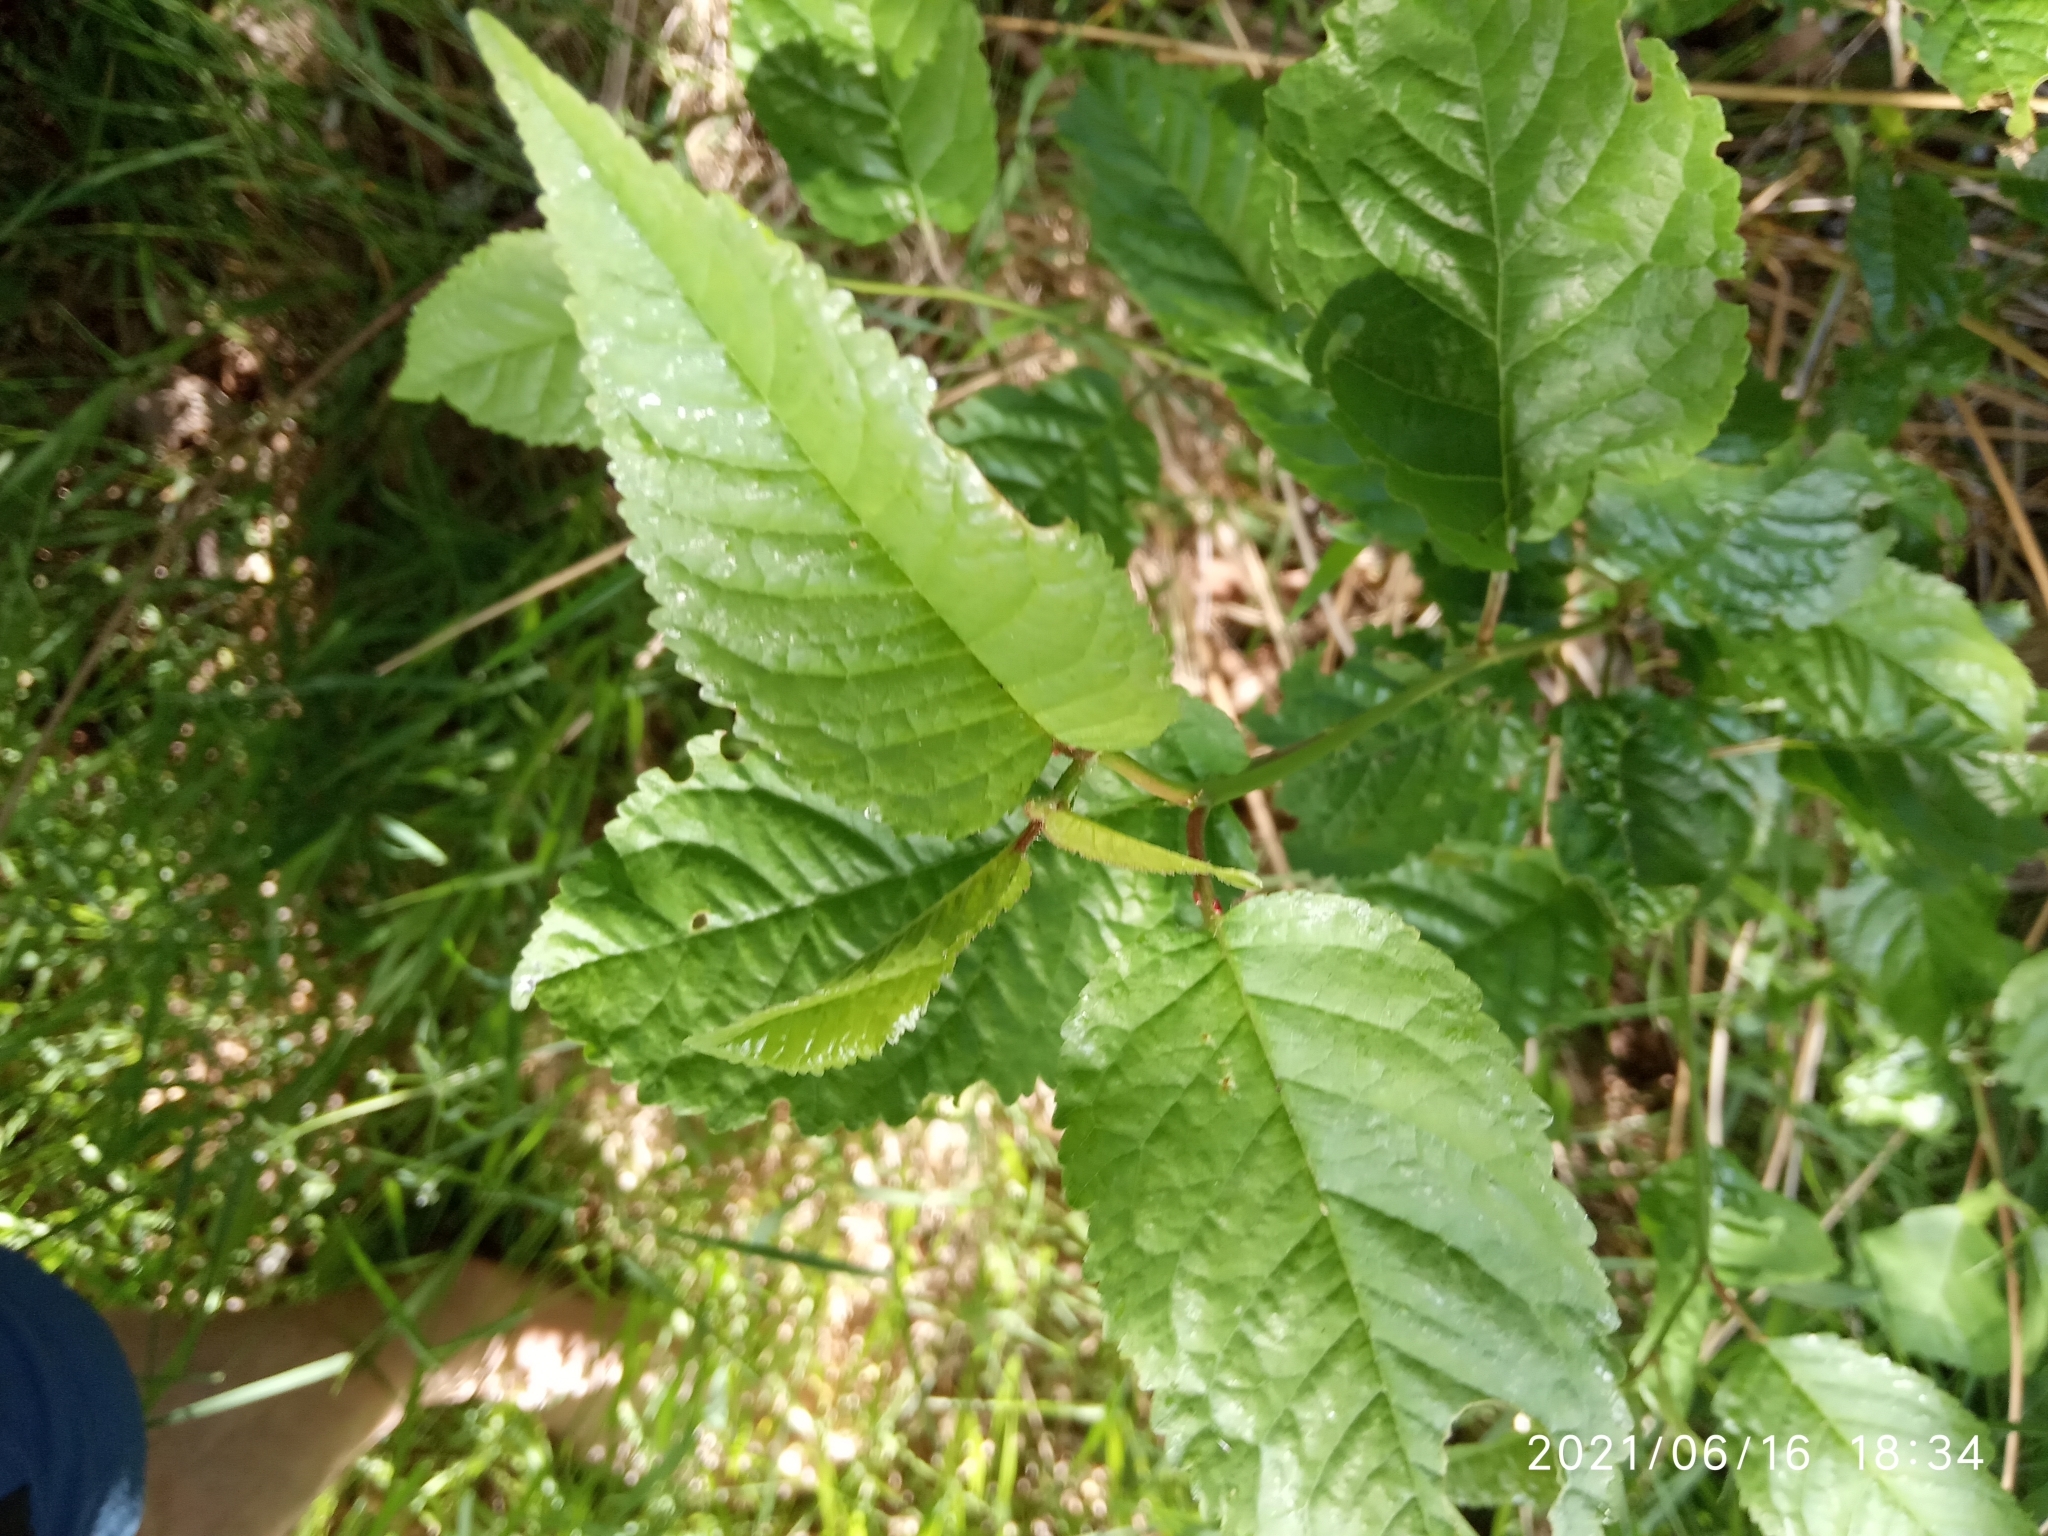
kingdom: Plantae
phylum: Tracheophyta
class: Magnoliopsida
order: Rosales
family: Rosaceae
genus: Prunus
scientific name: Prunus avium
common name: Sweet cherry
